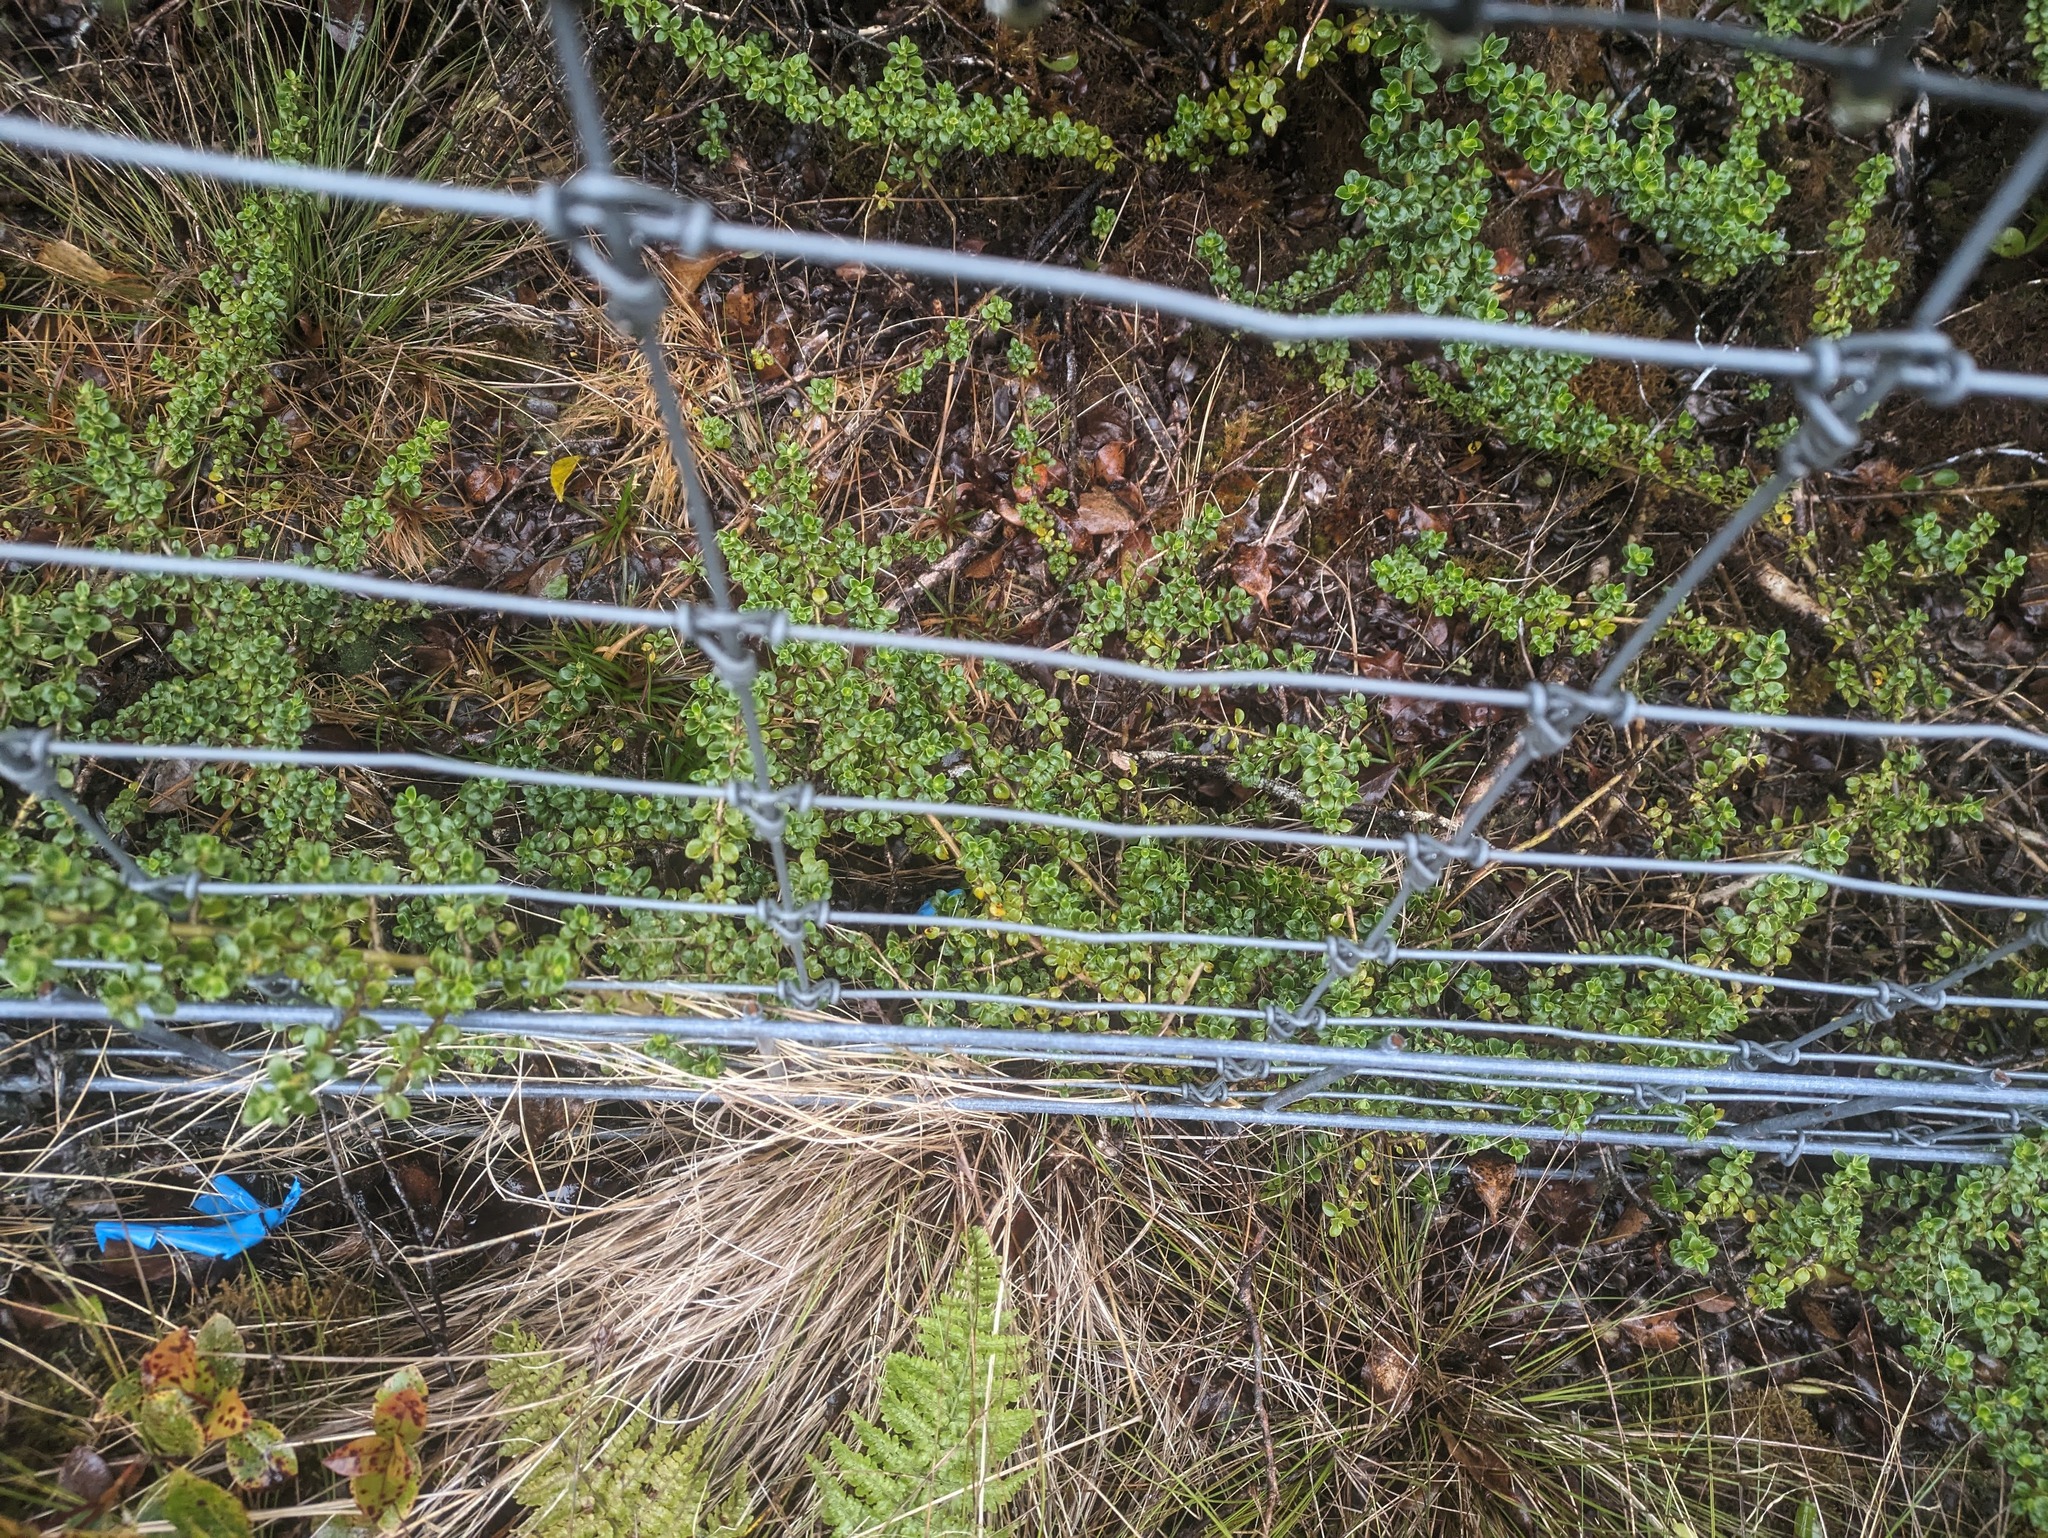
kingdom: Plantae
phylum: Tracheophyta
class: Magnoliopsida
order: Gentianales
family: Rubiaceae
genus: Coprosma
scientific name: Coprosma elliptica
